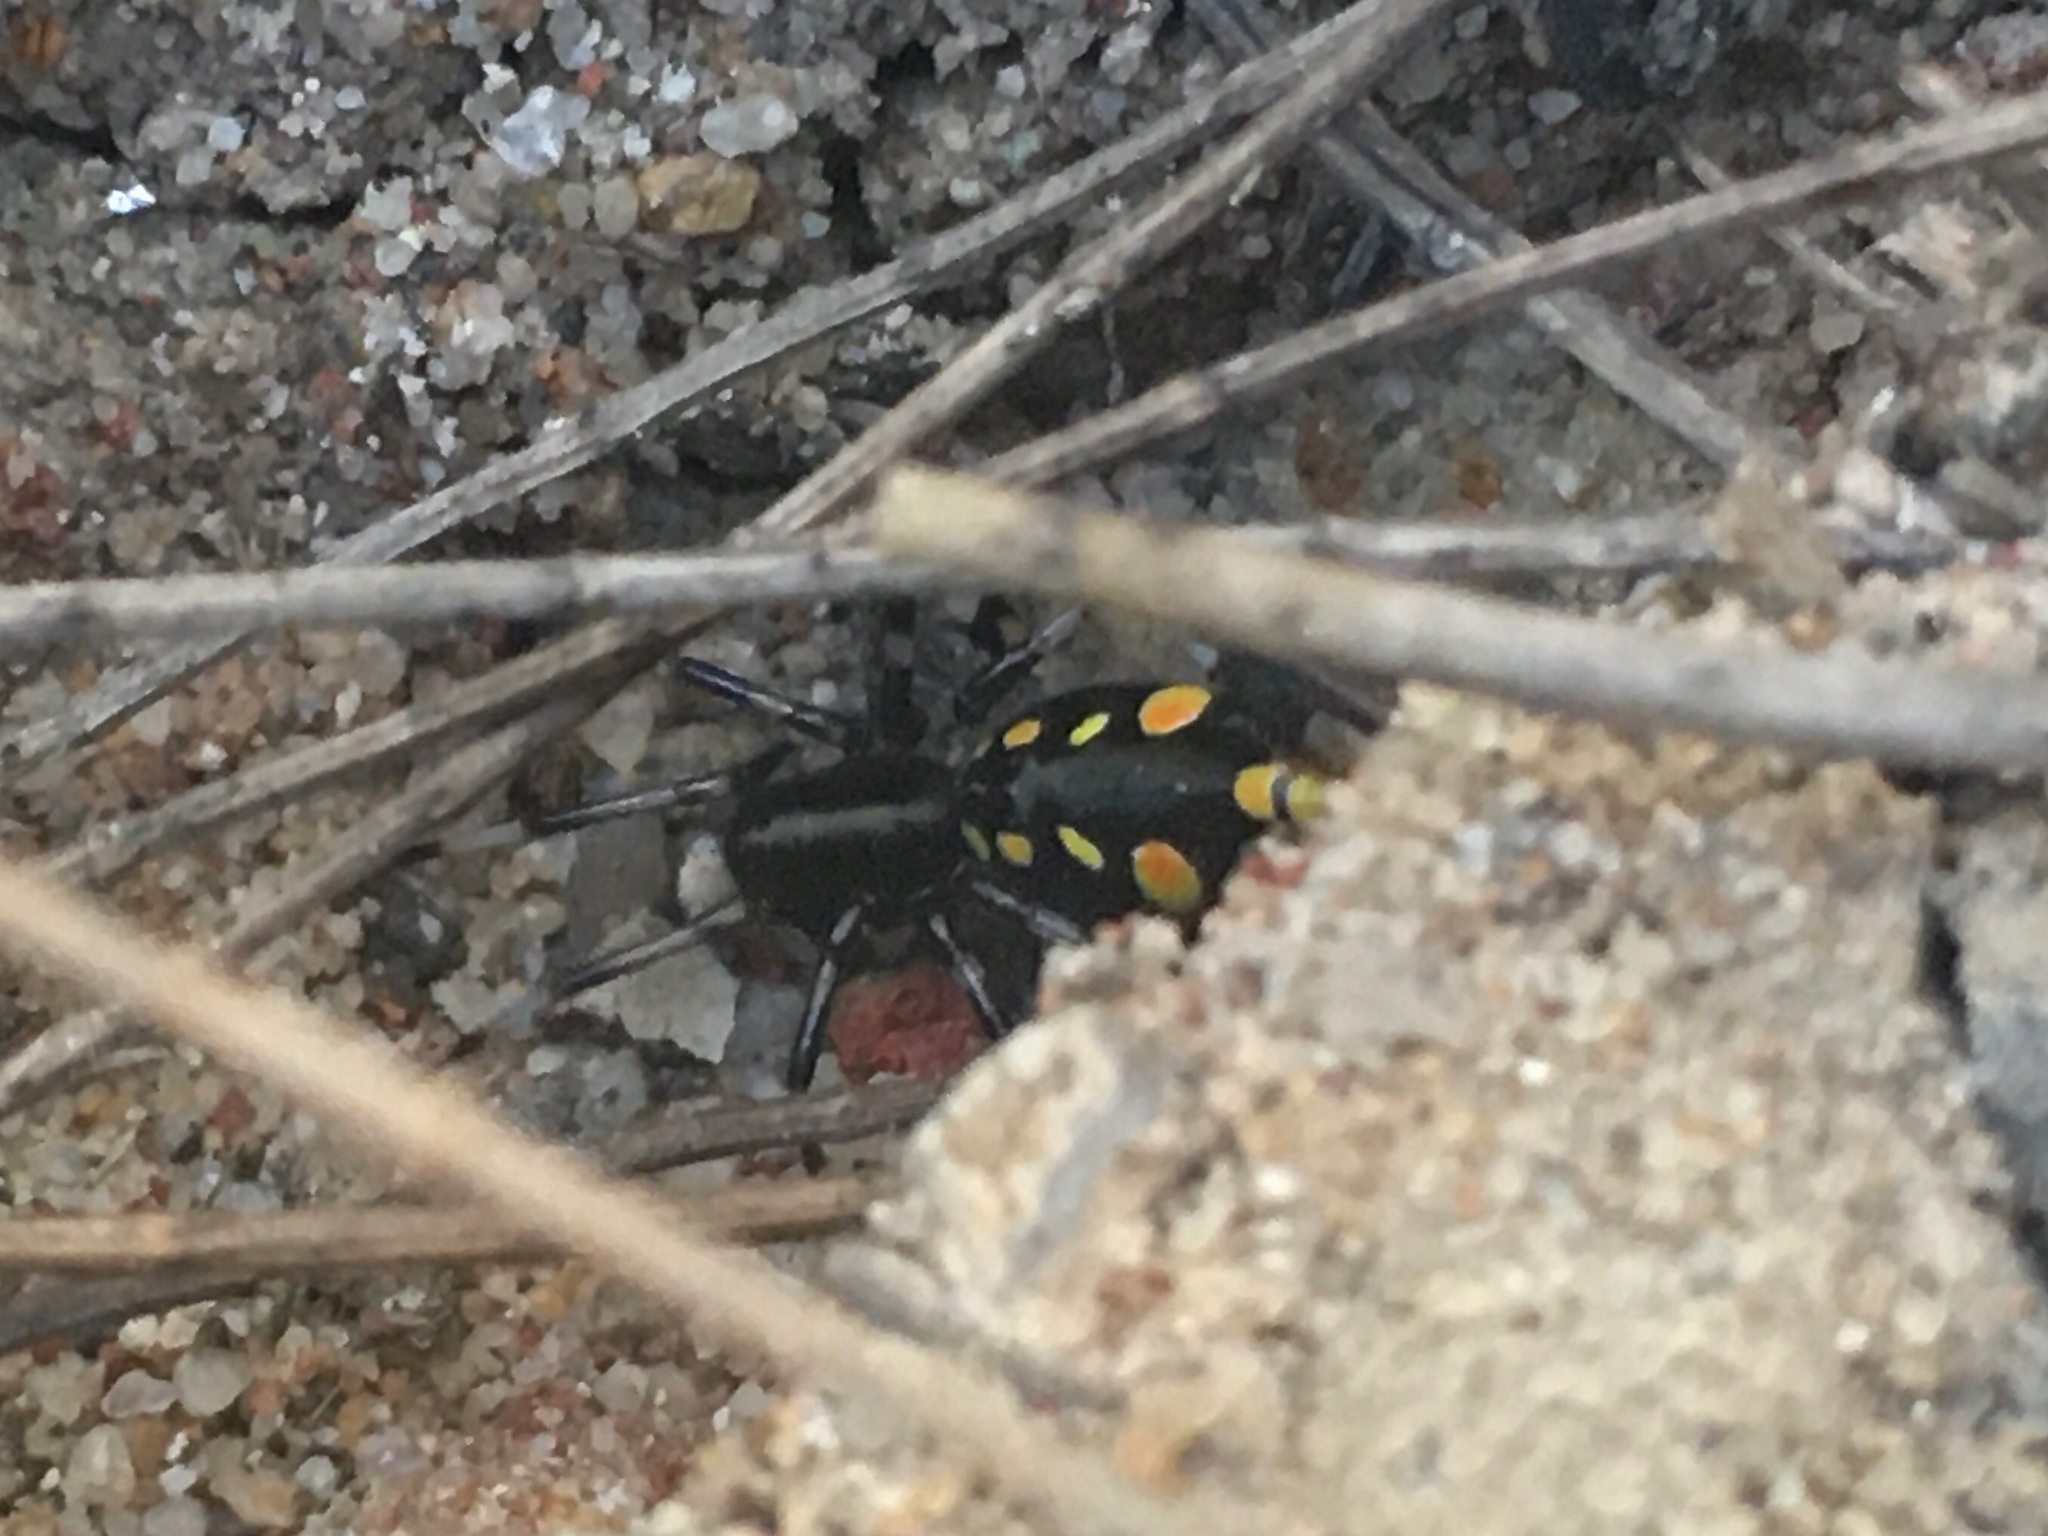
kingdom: Animalia
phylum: Arthropoda
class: Arachnida
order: Araneae
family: Zodariidae
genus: Subasteron
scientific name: Subasteron daviesae
